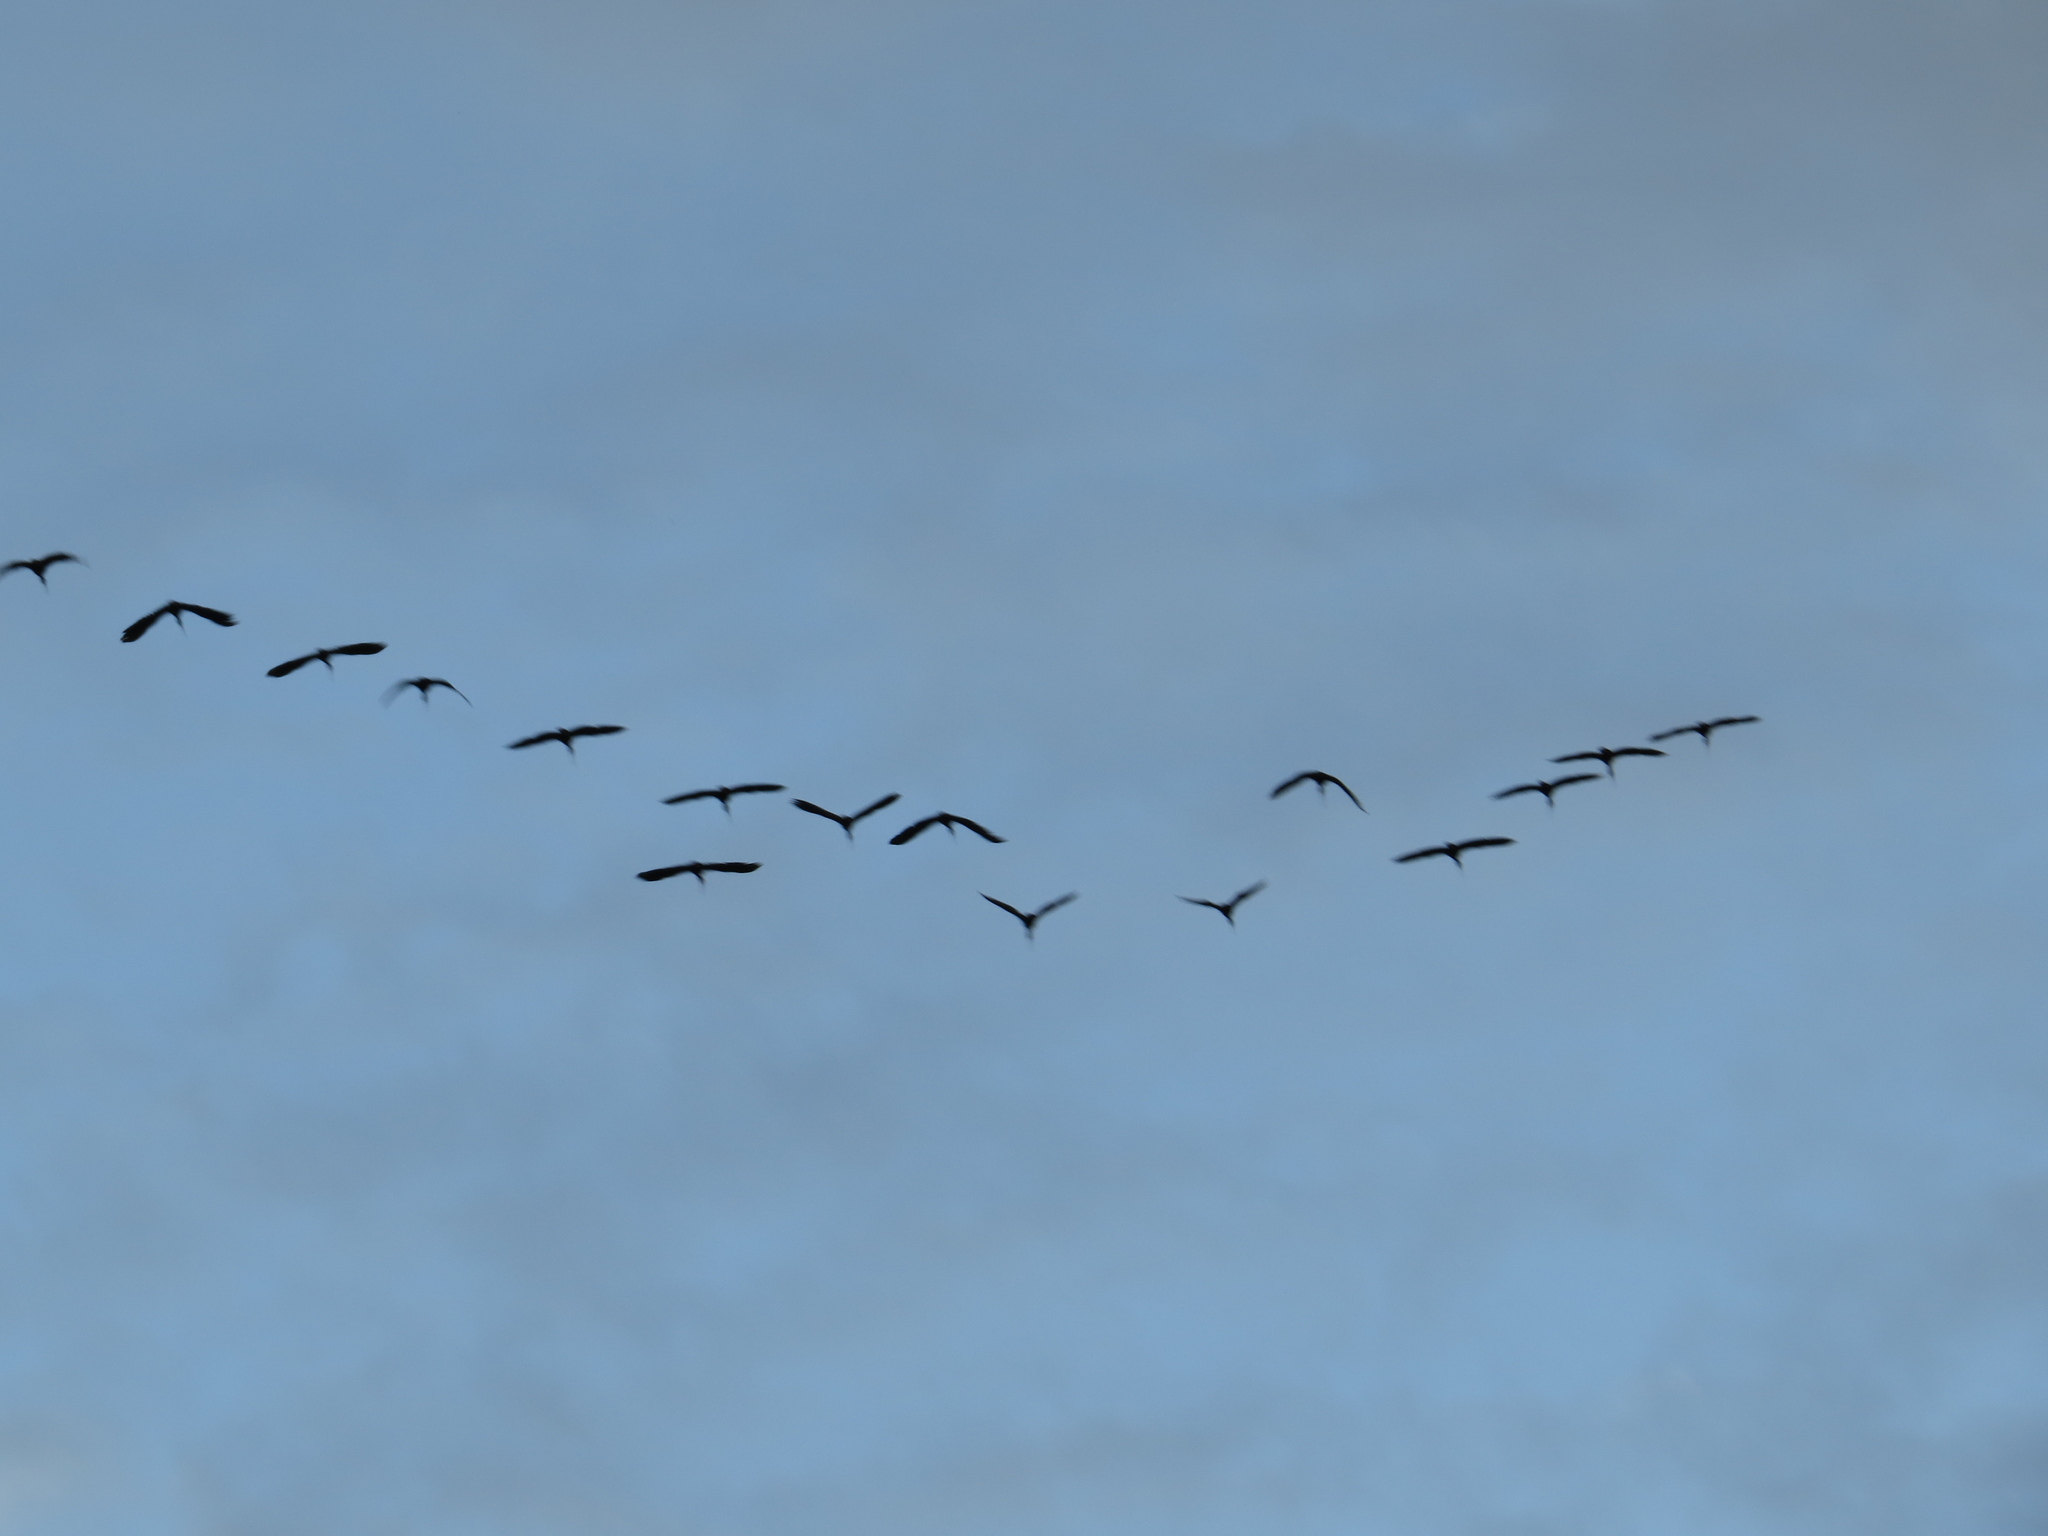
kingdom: Animalia
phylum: Chordata
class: Aves
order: Pelecaniformes
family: Threskiornithidae
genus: Phimosus
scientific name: Phimosus infuscatus
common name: Bare-faced ibis
